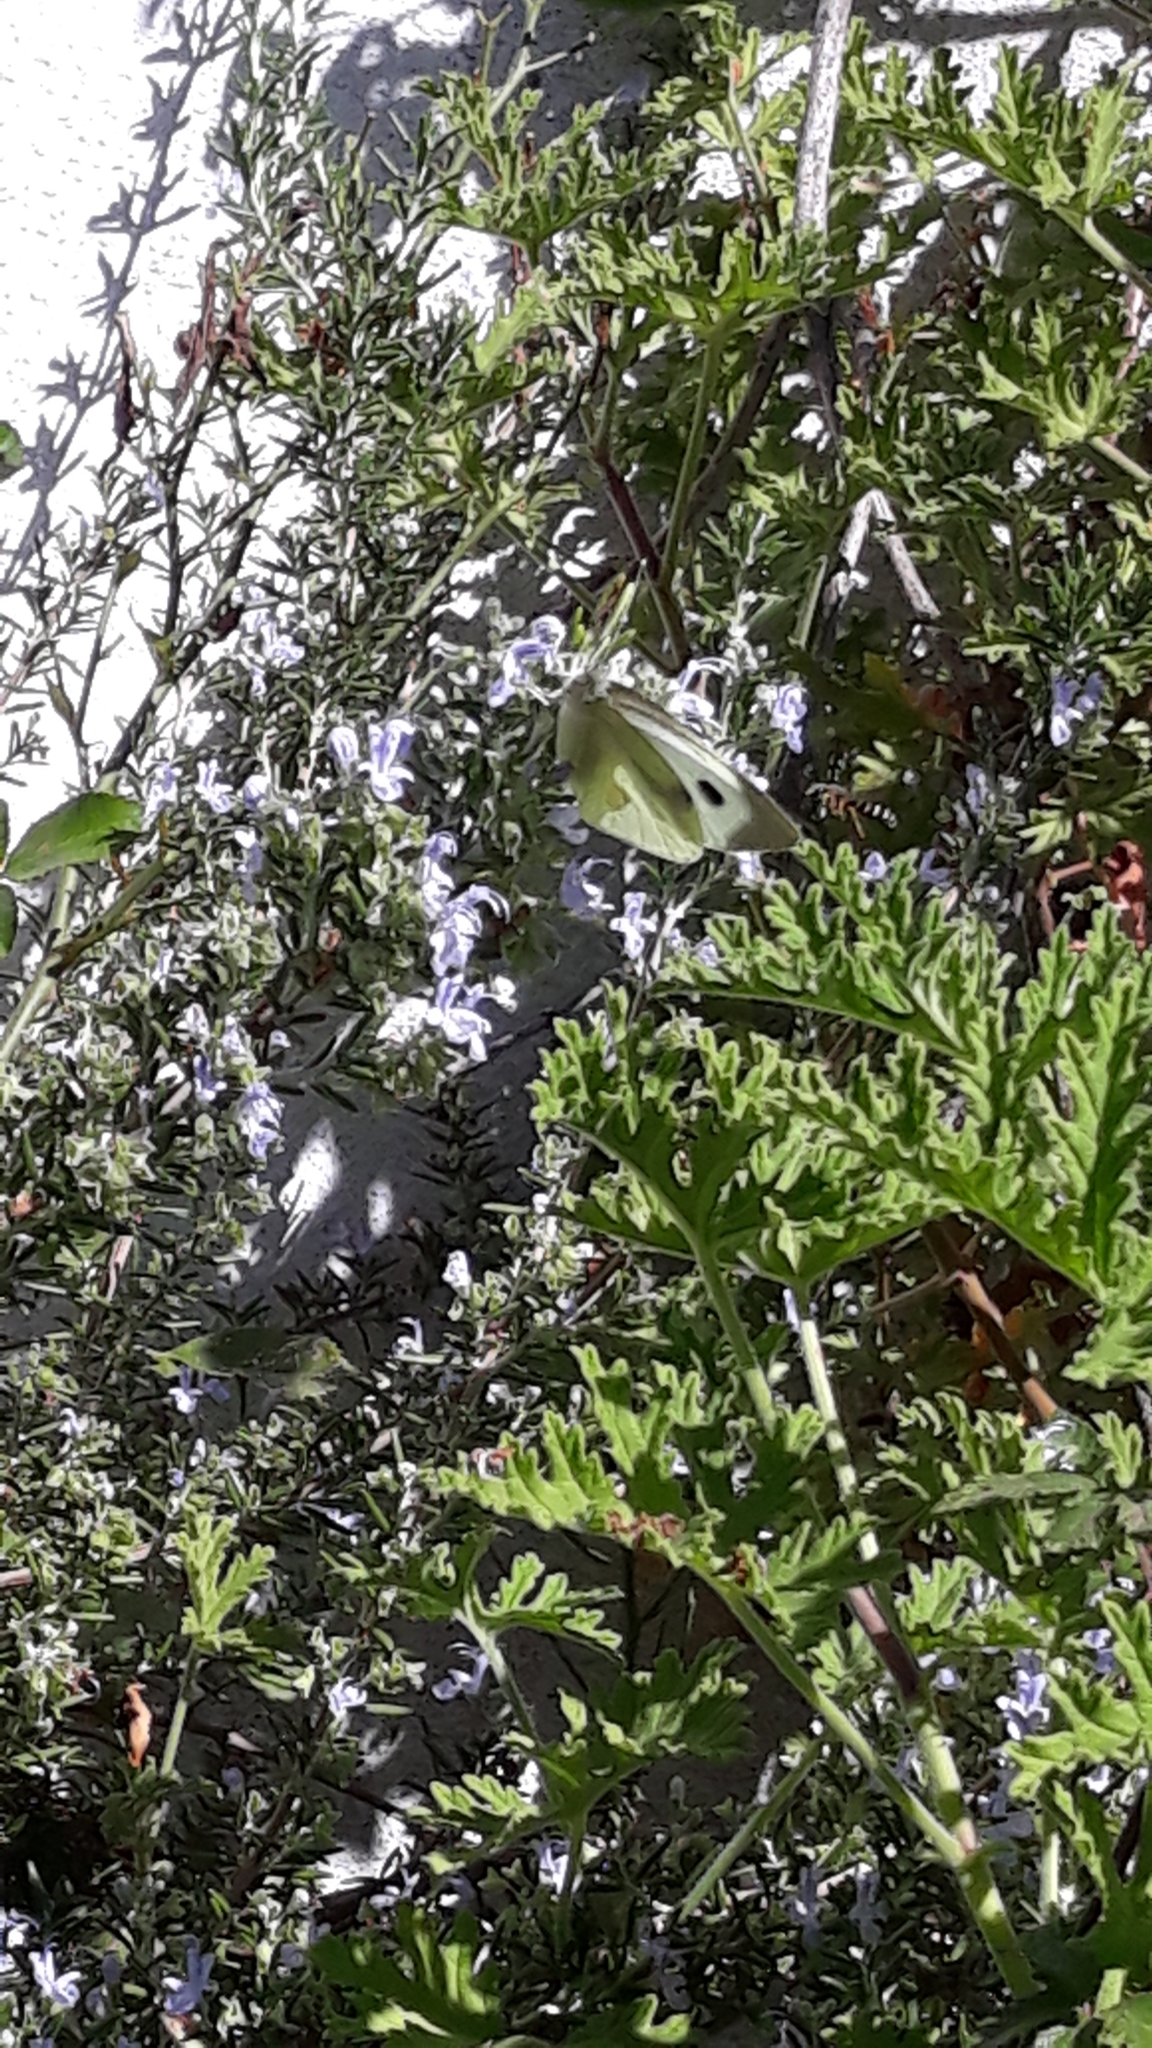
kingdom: Animalia
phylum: Arthropoda
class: Insecta
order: Lepidoptera
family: Pieridae
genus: Pieris
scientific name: Pieris brassicae
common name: Large white
